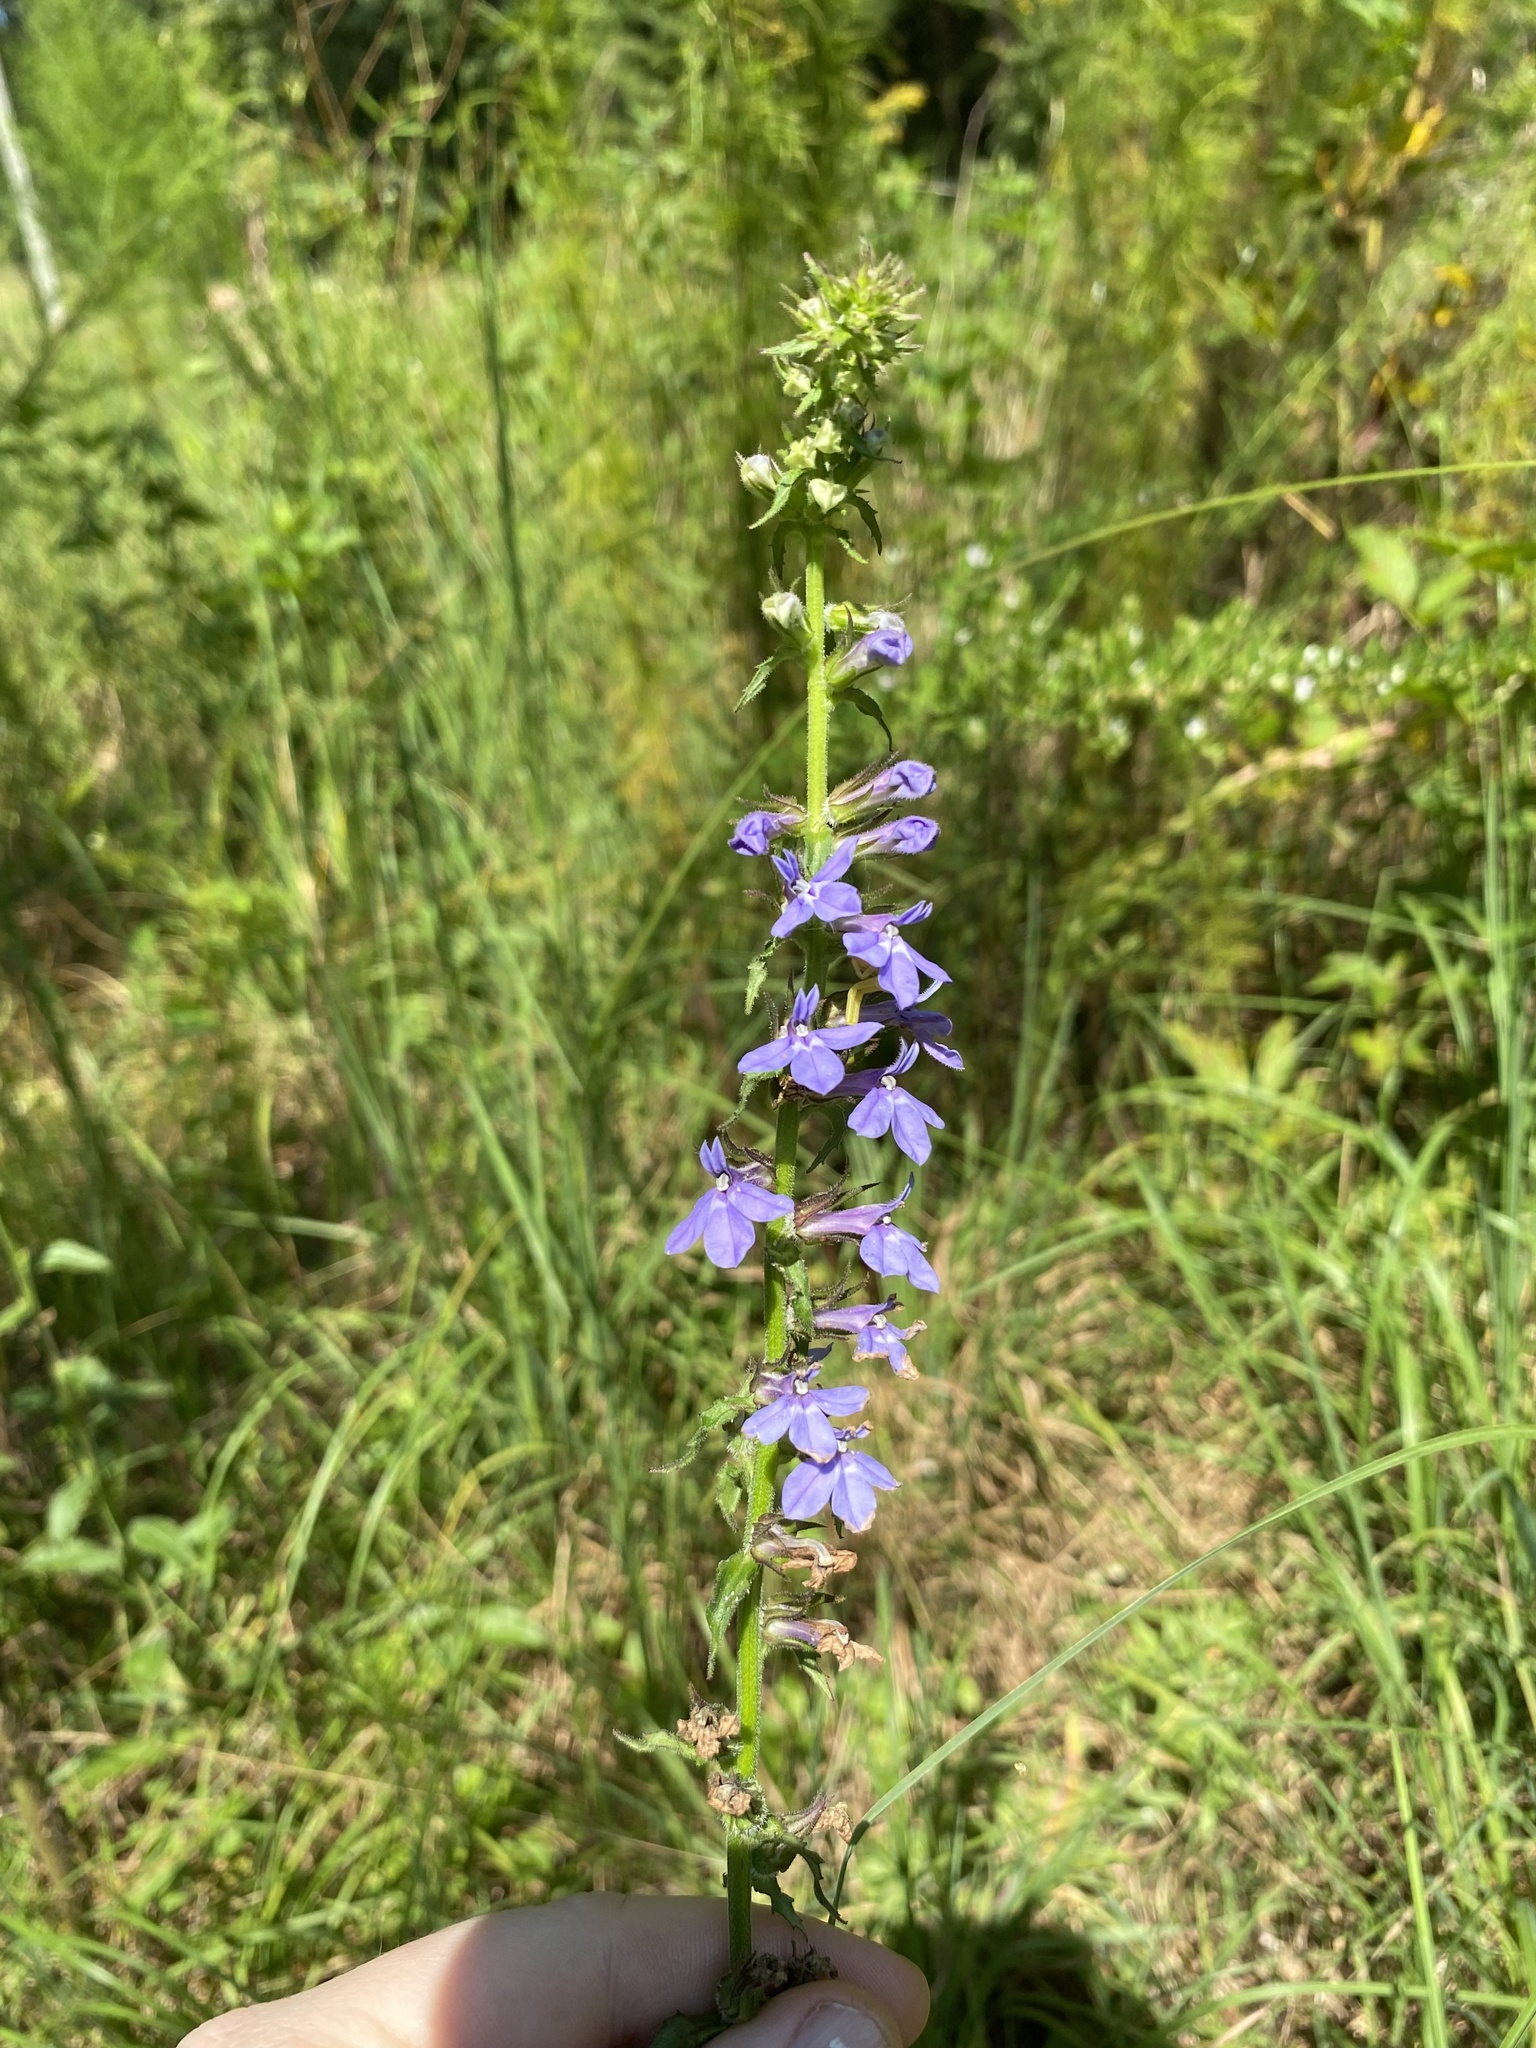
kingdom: Plantae
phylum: Tracheophyta
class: Magnoliopsida
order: Asterales
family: Campanulaceae
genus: Lobelia
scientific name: Lobelia puberula
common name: Purple dewdrop
